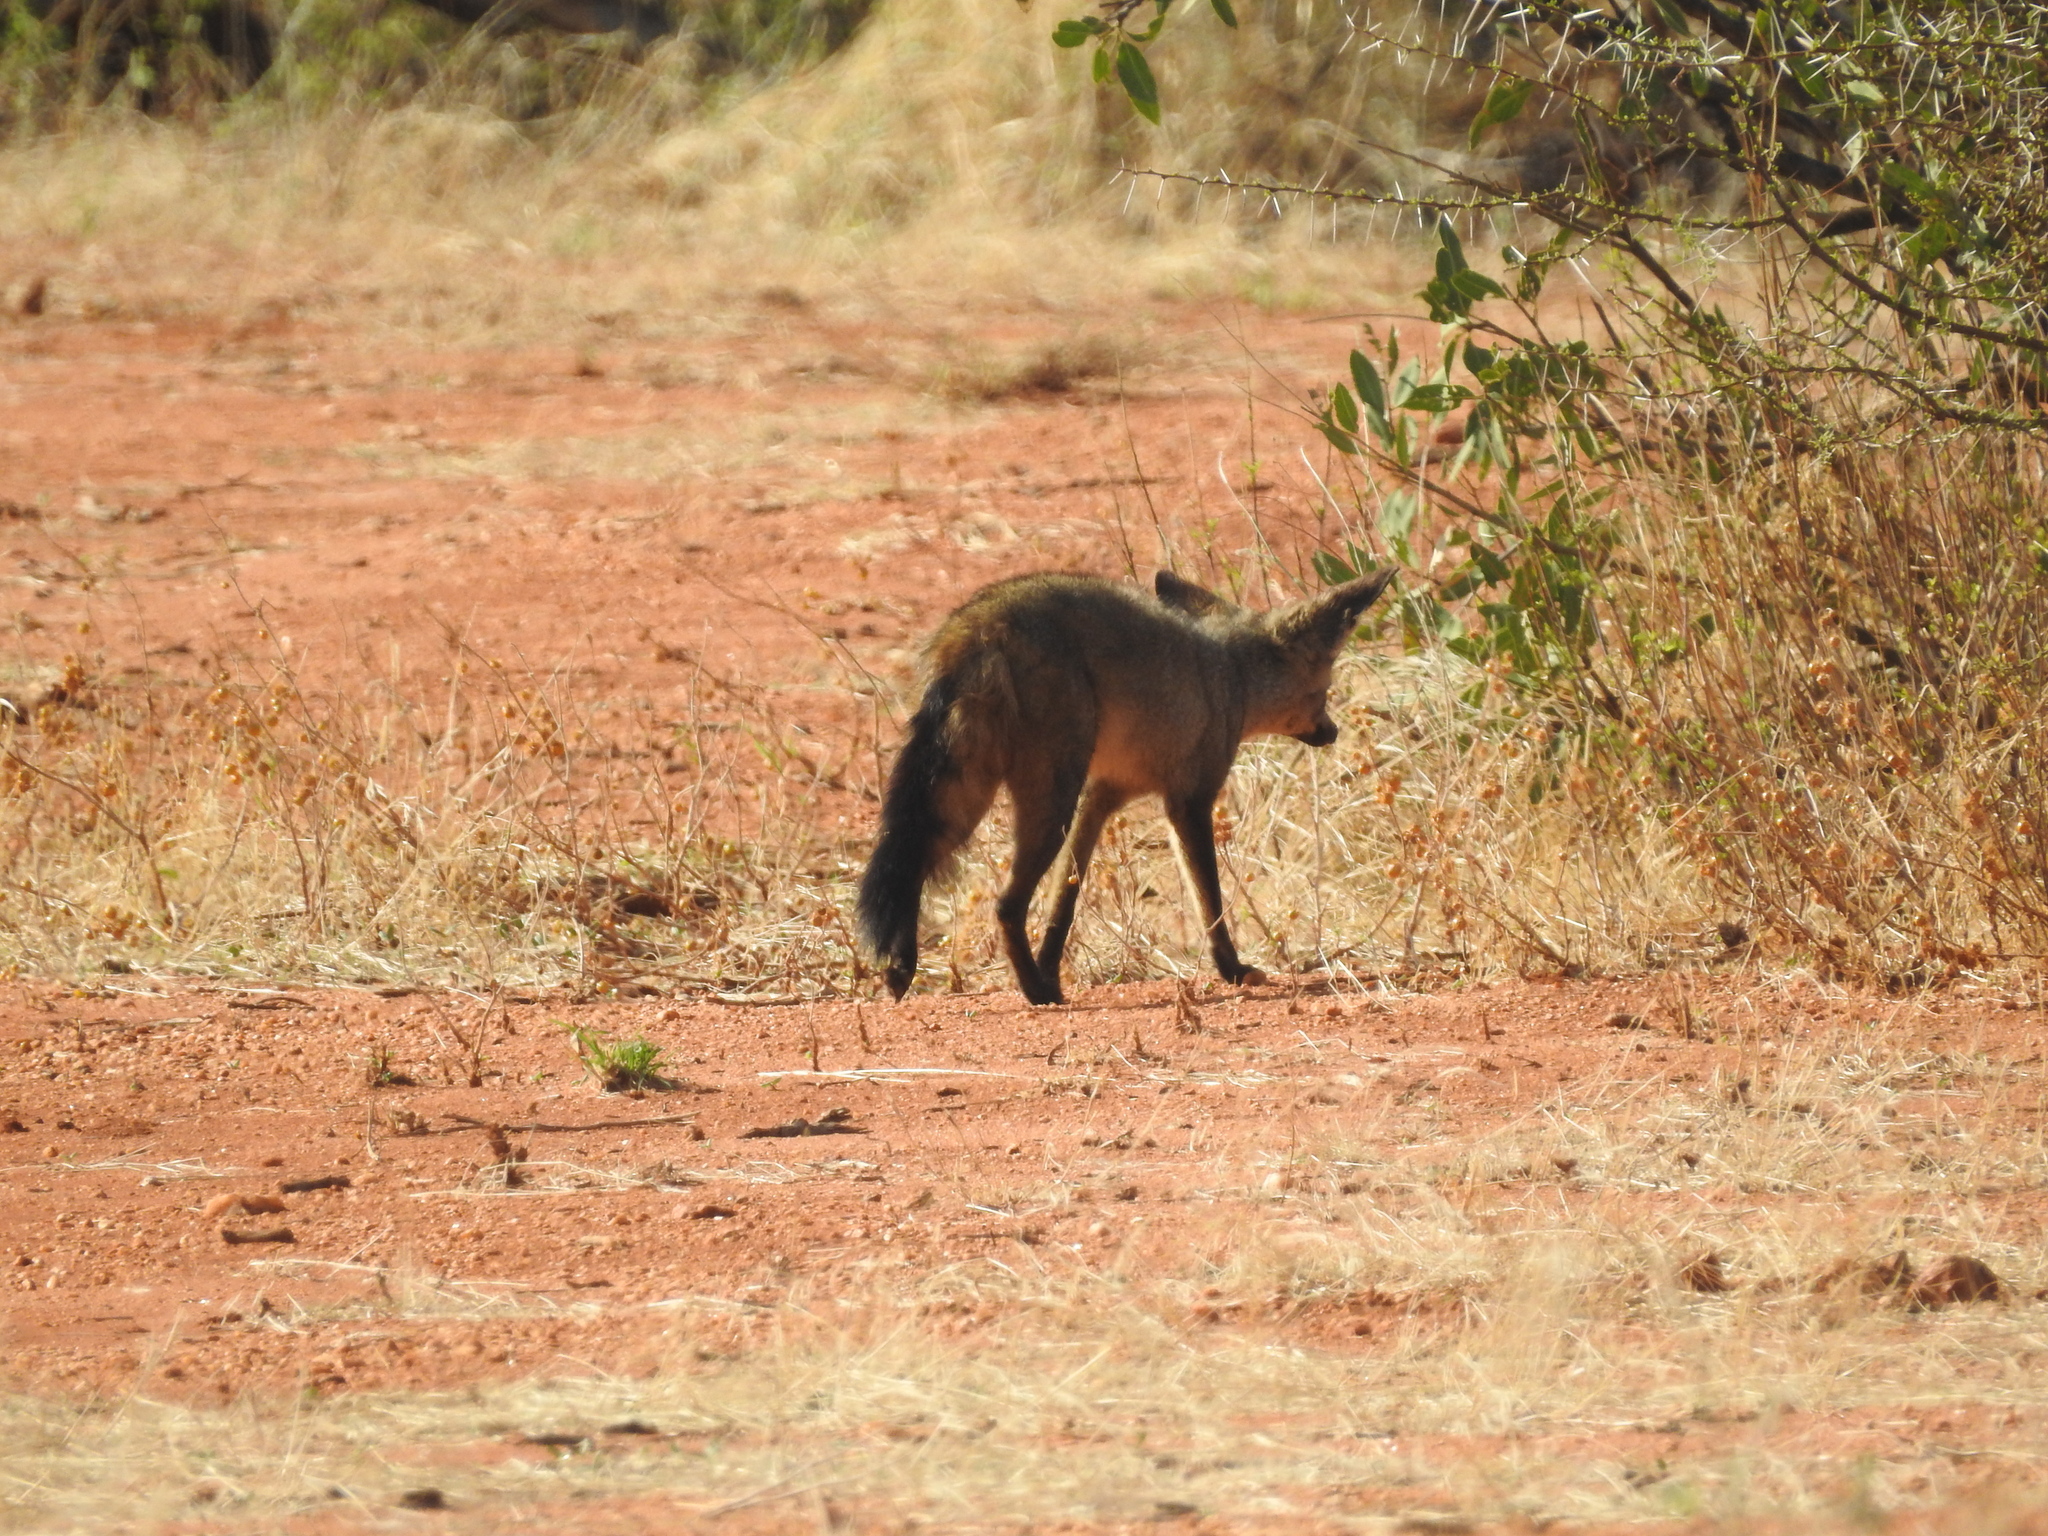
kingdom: Animalia
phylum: Chordata
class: Mammalia
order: Carnivora
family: Canidae
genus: Otocyon
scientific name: Otocyon megalotis
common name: Bat-eared fox
